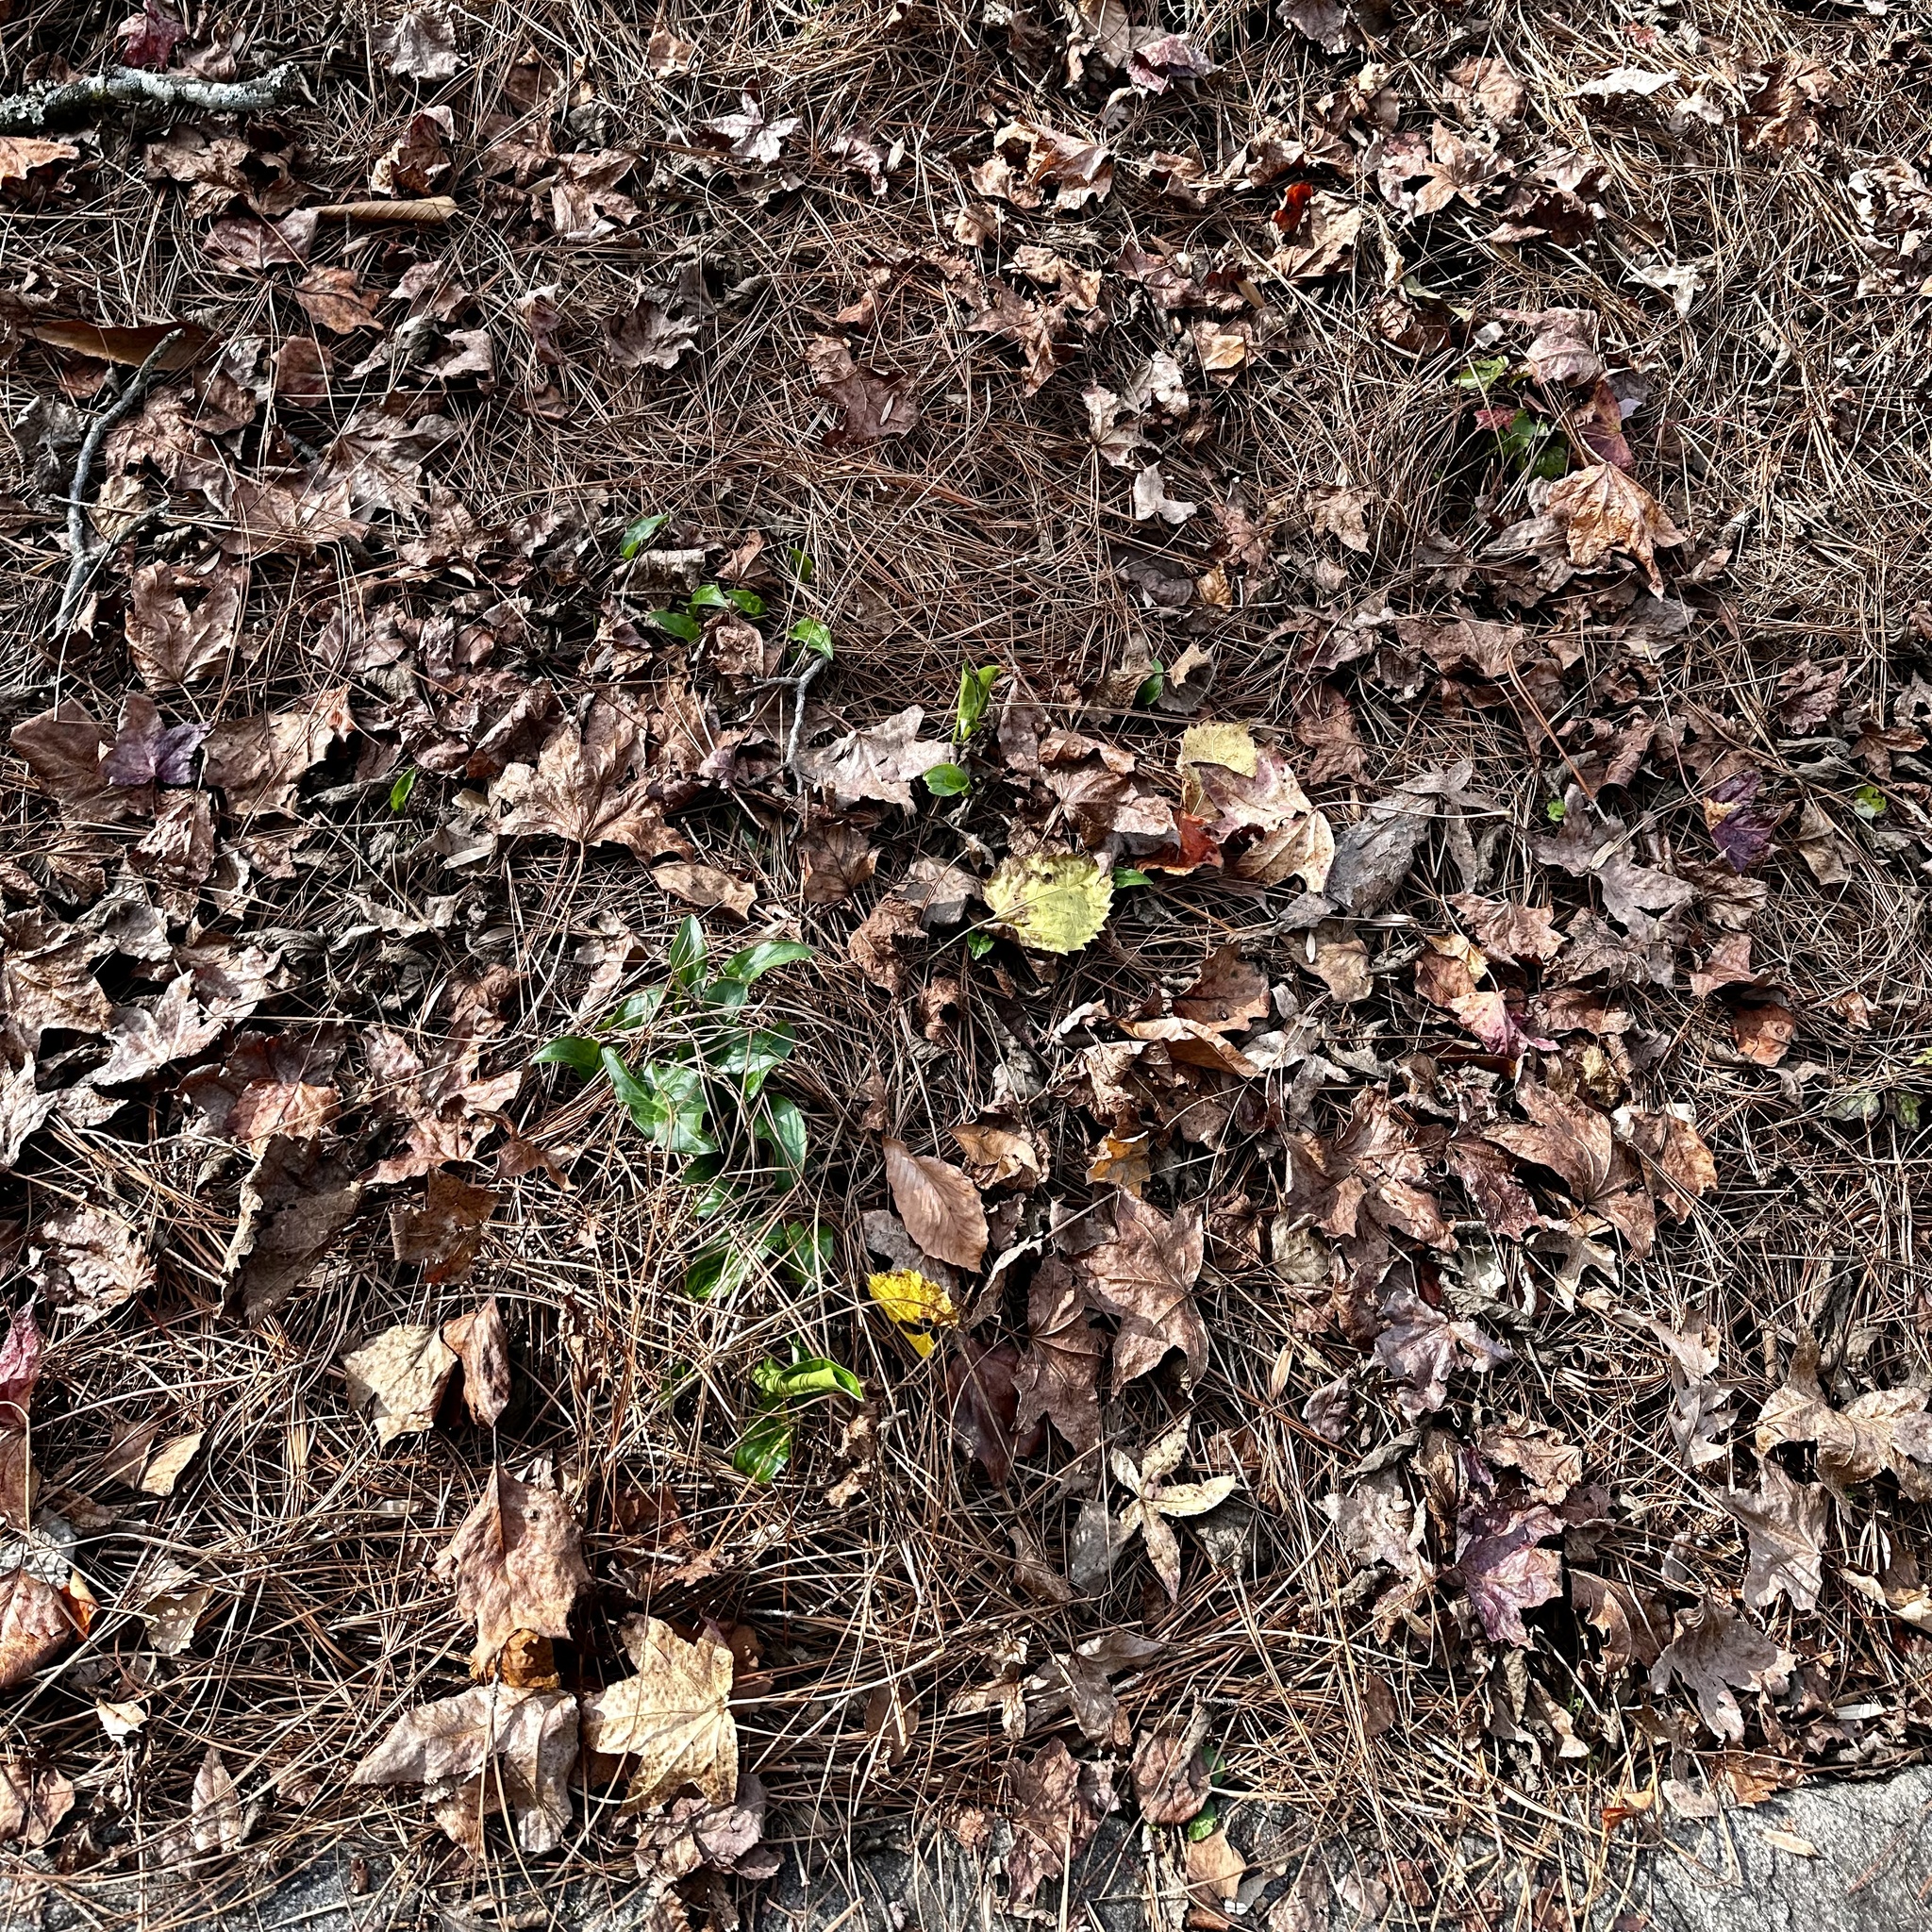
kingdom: Plantae
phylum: Tracheophyta
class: Liliopsida
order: Alismatales
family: Araceae
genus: Arum
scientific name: Arum italicum
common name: Italian lords-and-ladies
